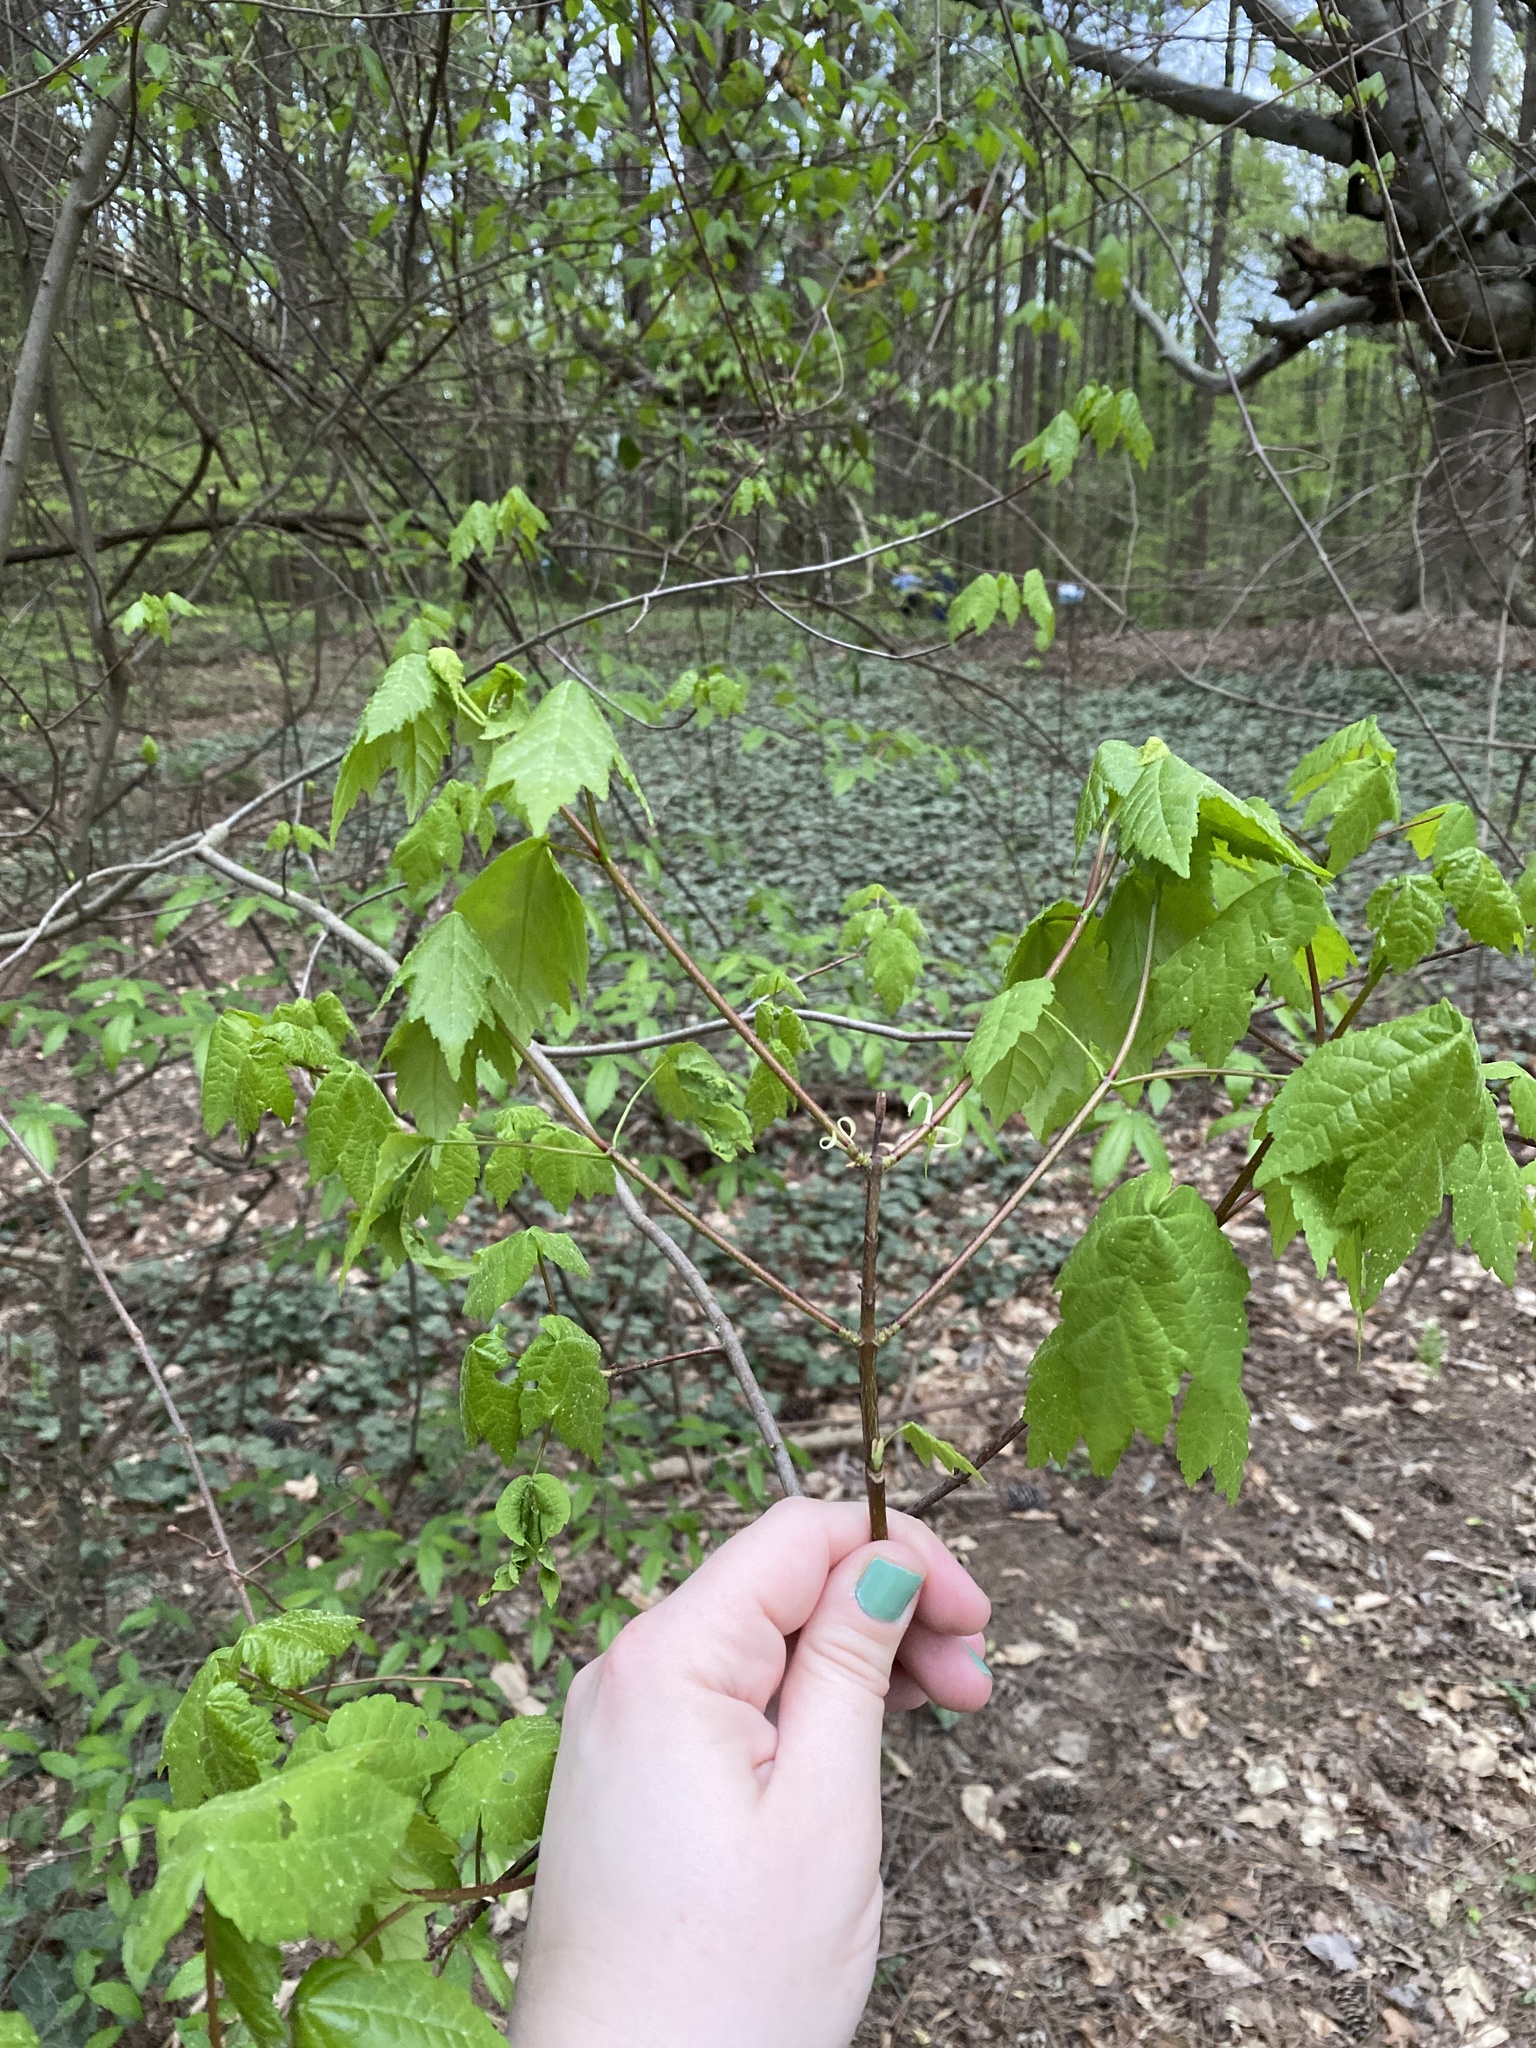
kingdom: Plantae
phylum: Tracheophyta
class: Magnoliopsida
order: Sapindales
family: Sapindaceae
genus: Acer
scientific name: Acer rubrum
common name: Red maple
